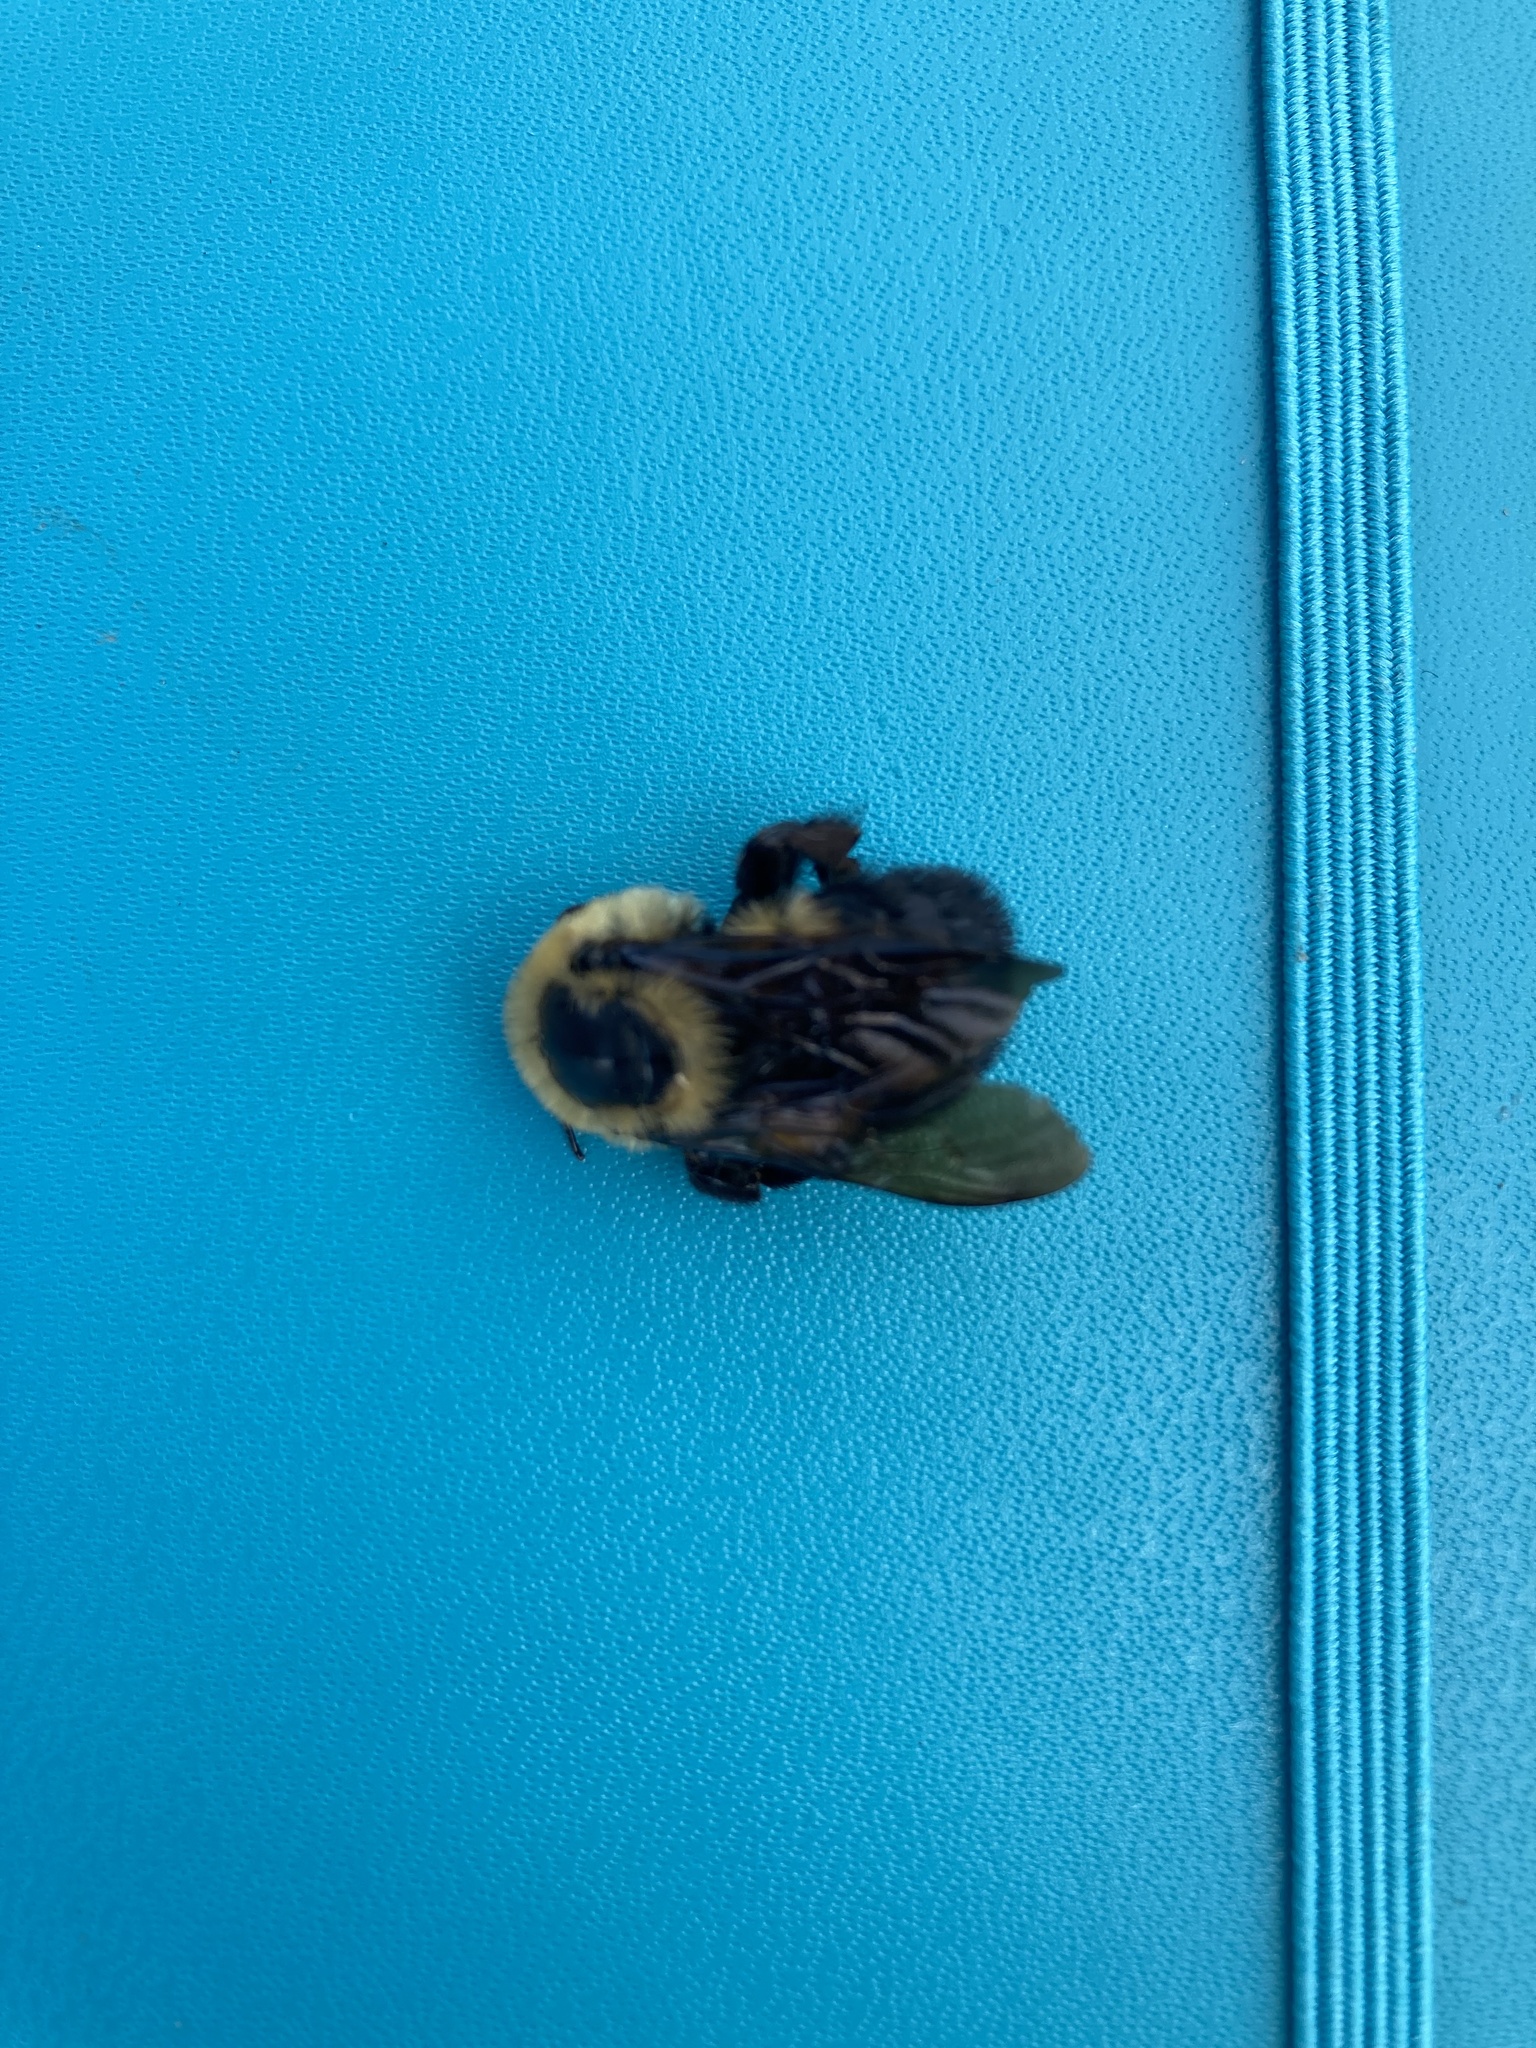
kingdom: Animalia
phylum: Arthropoda
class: Insecta
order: Hymenoptera
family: Apidae
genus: Bombus
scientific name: Bombus griseocollis
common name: Brown-belted bumble bee
